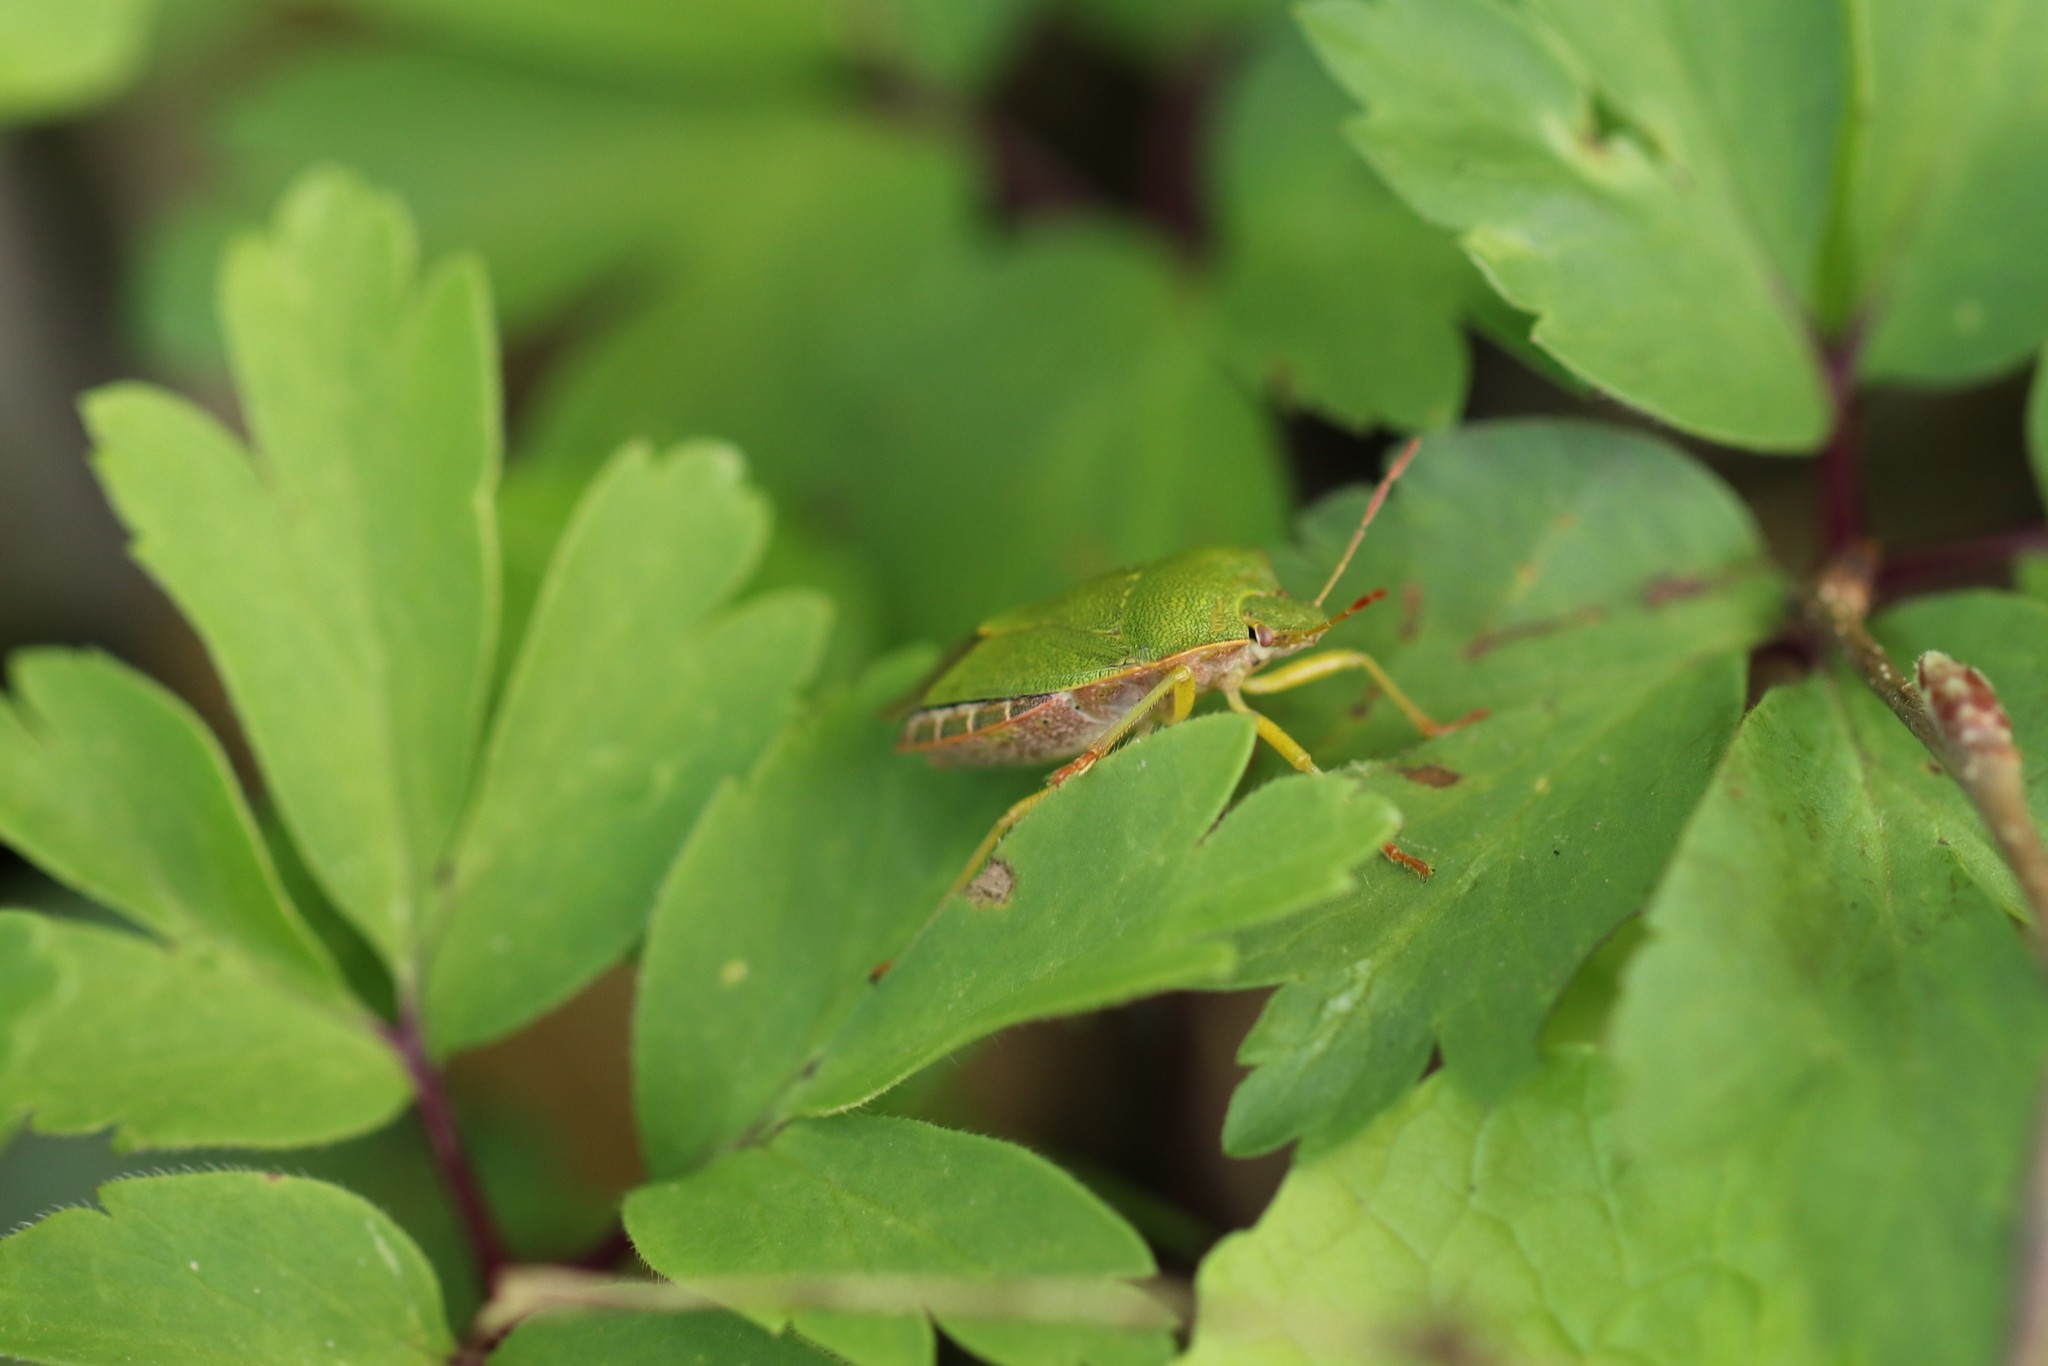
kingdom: Animalia
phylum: Arthropoda
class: Insecta
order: Hemiptera
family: Pentatomidae
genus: Palomena
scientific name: Palomena prasina
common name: Green shieldbug
